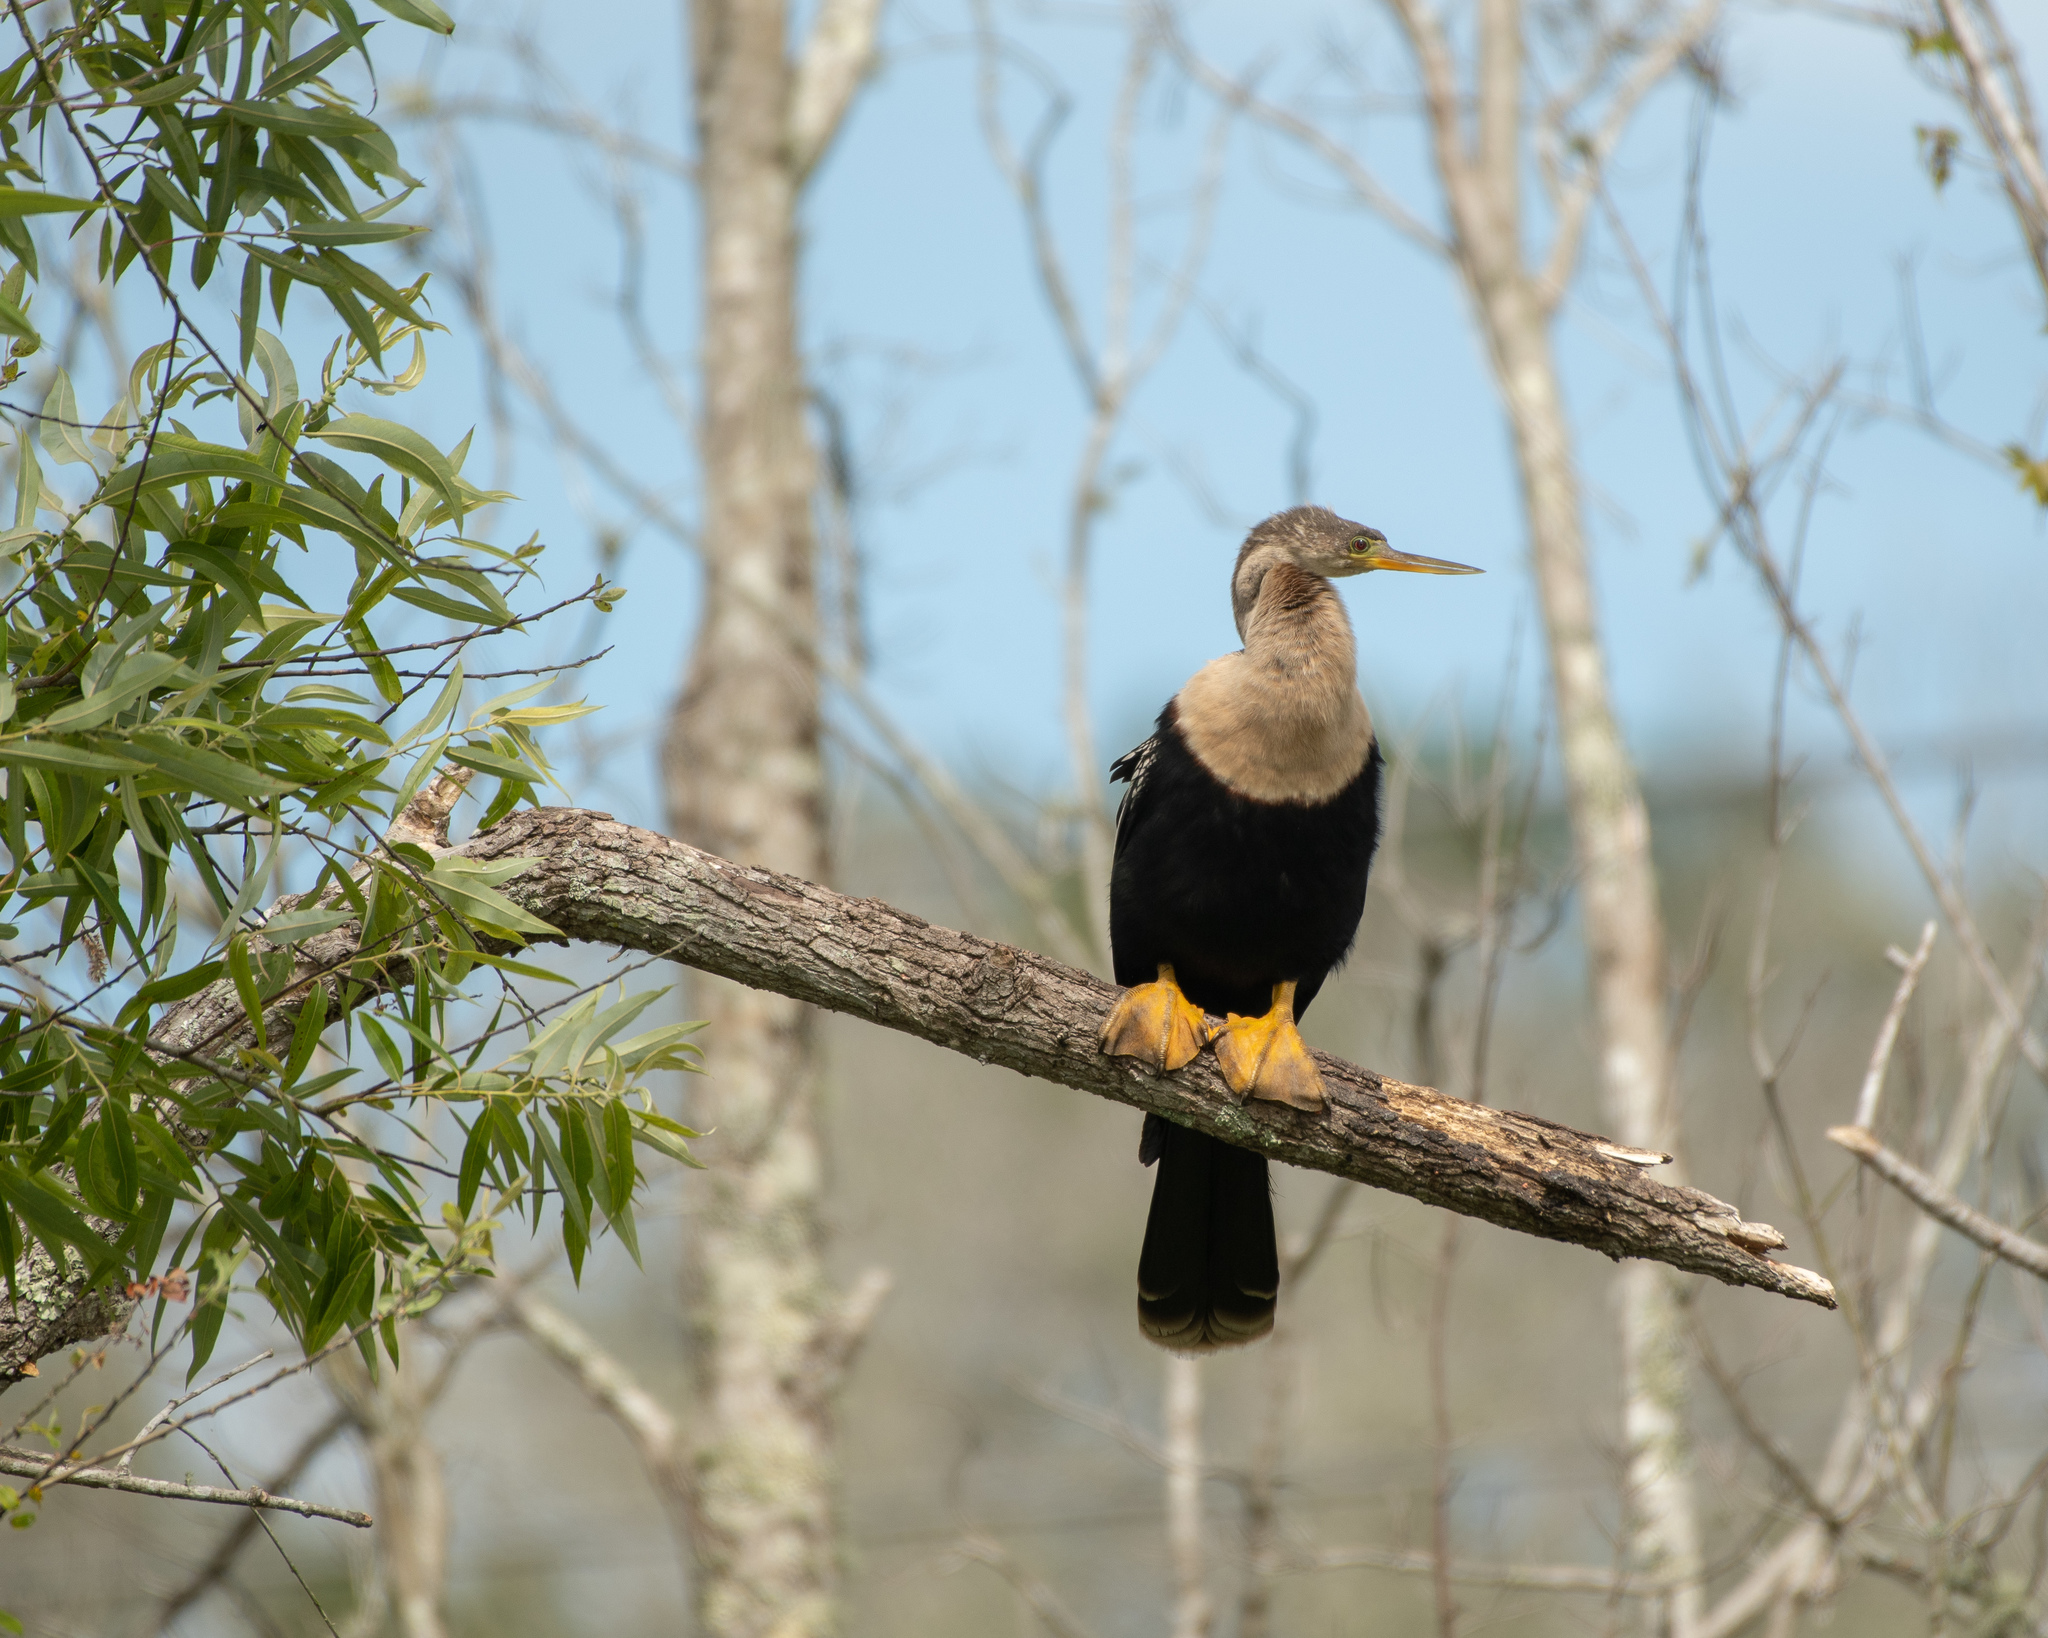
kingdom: Animalia
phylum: Chordata
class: Aves
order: Suliformes
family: Anhingidae
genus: Anhinga
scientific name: Anhinga anhinga
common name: Anhinga
